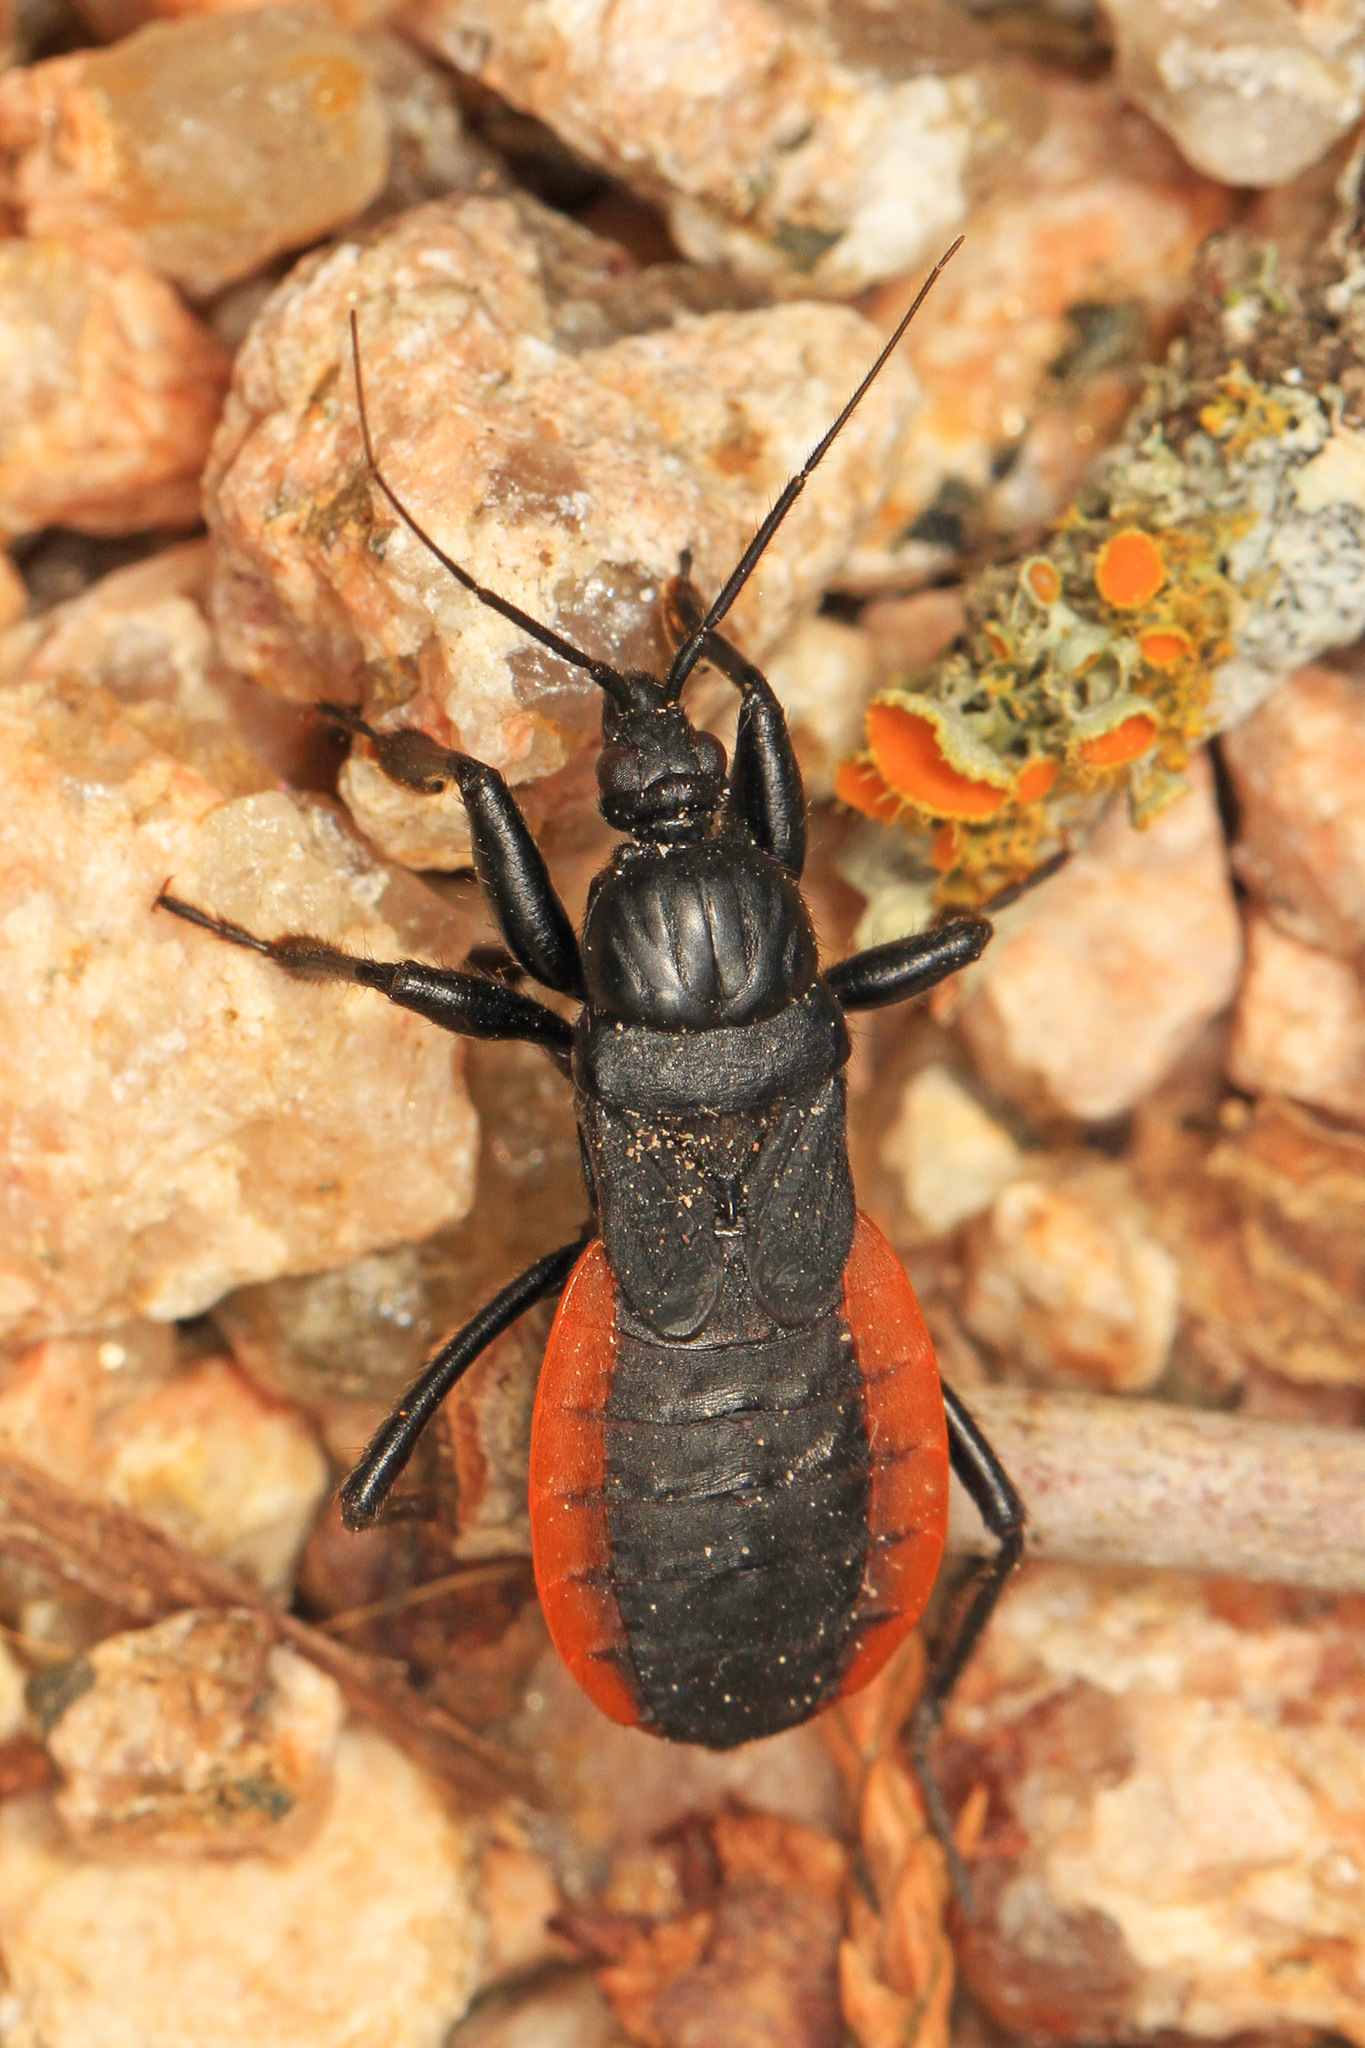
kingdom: Animalia
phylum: Arthropoda
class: Insecta
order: Hemiptera
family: Reduviidae
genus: Melanolestes
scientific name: Melanolestes picipes
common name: Assassin bug
